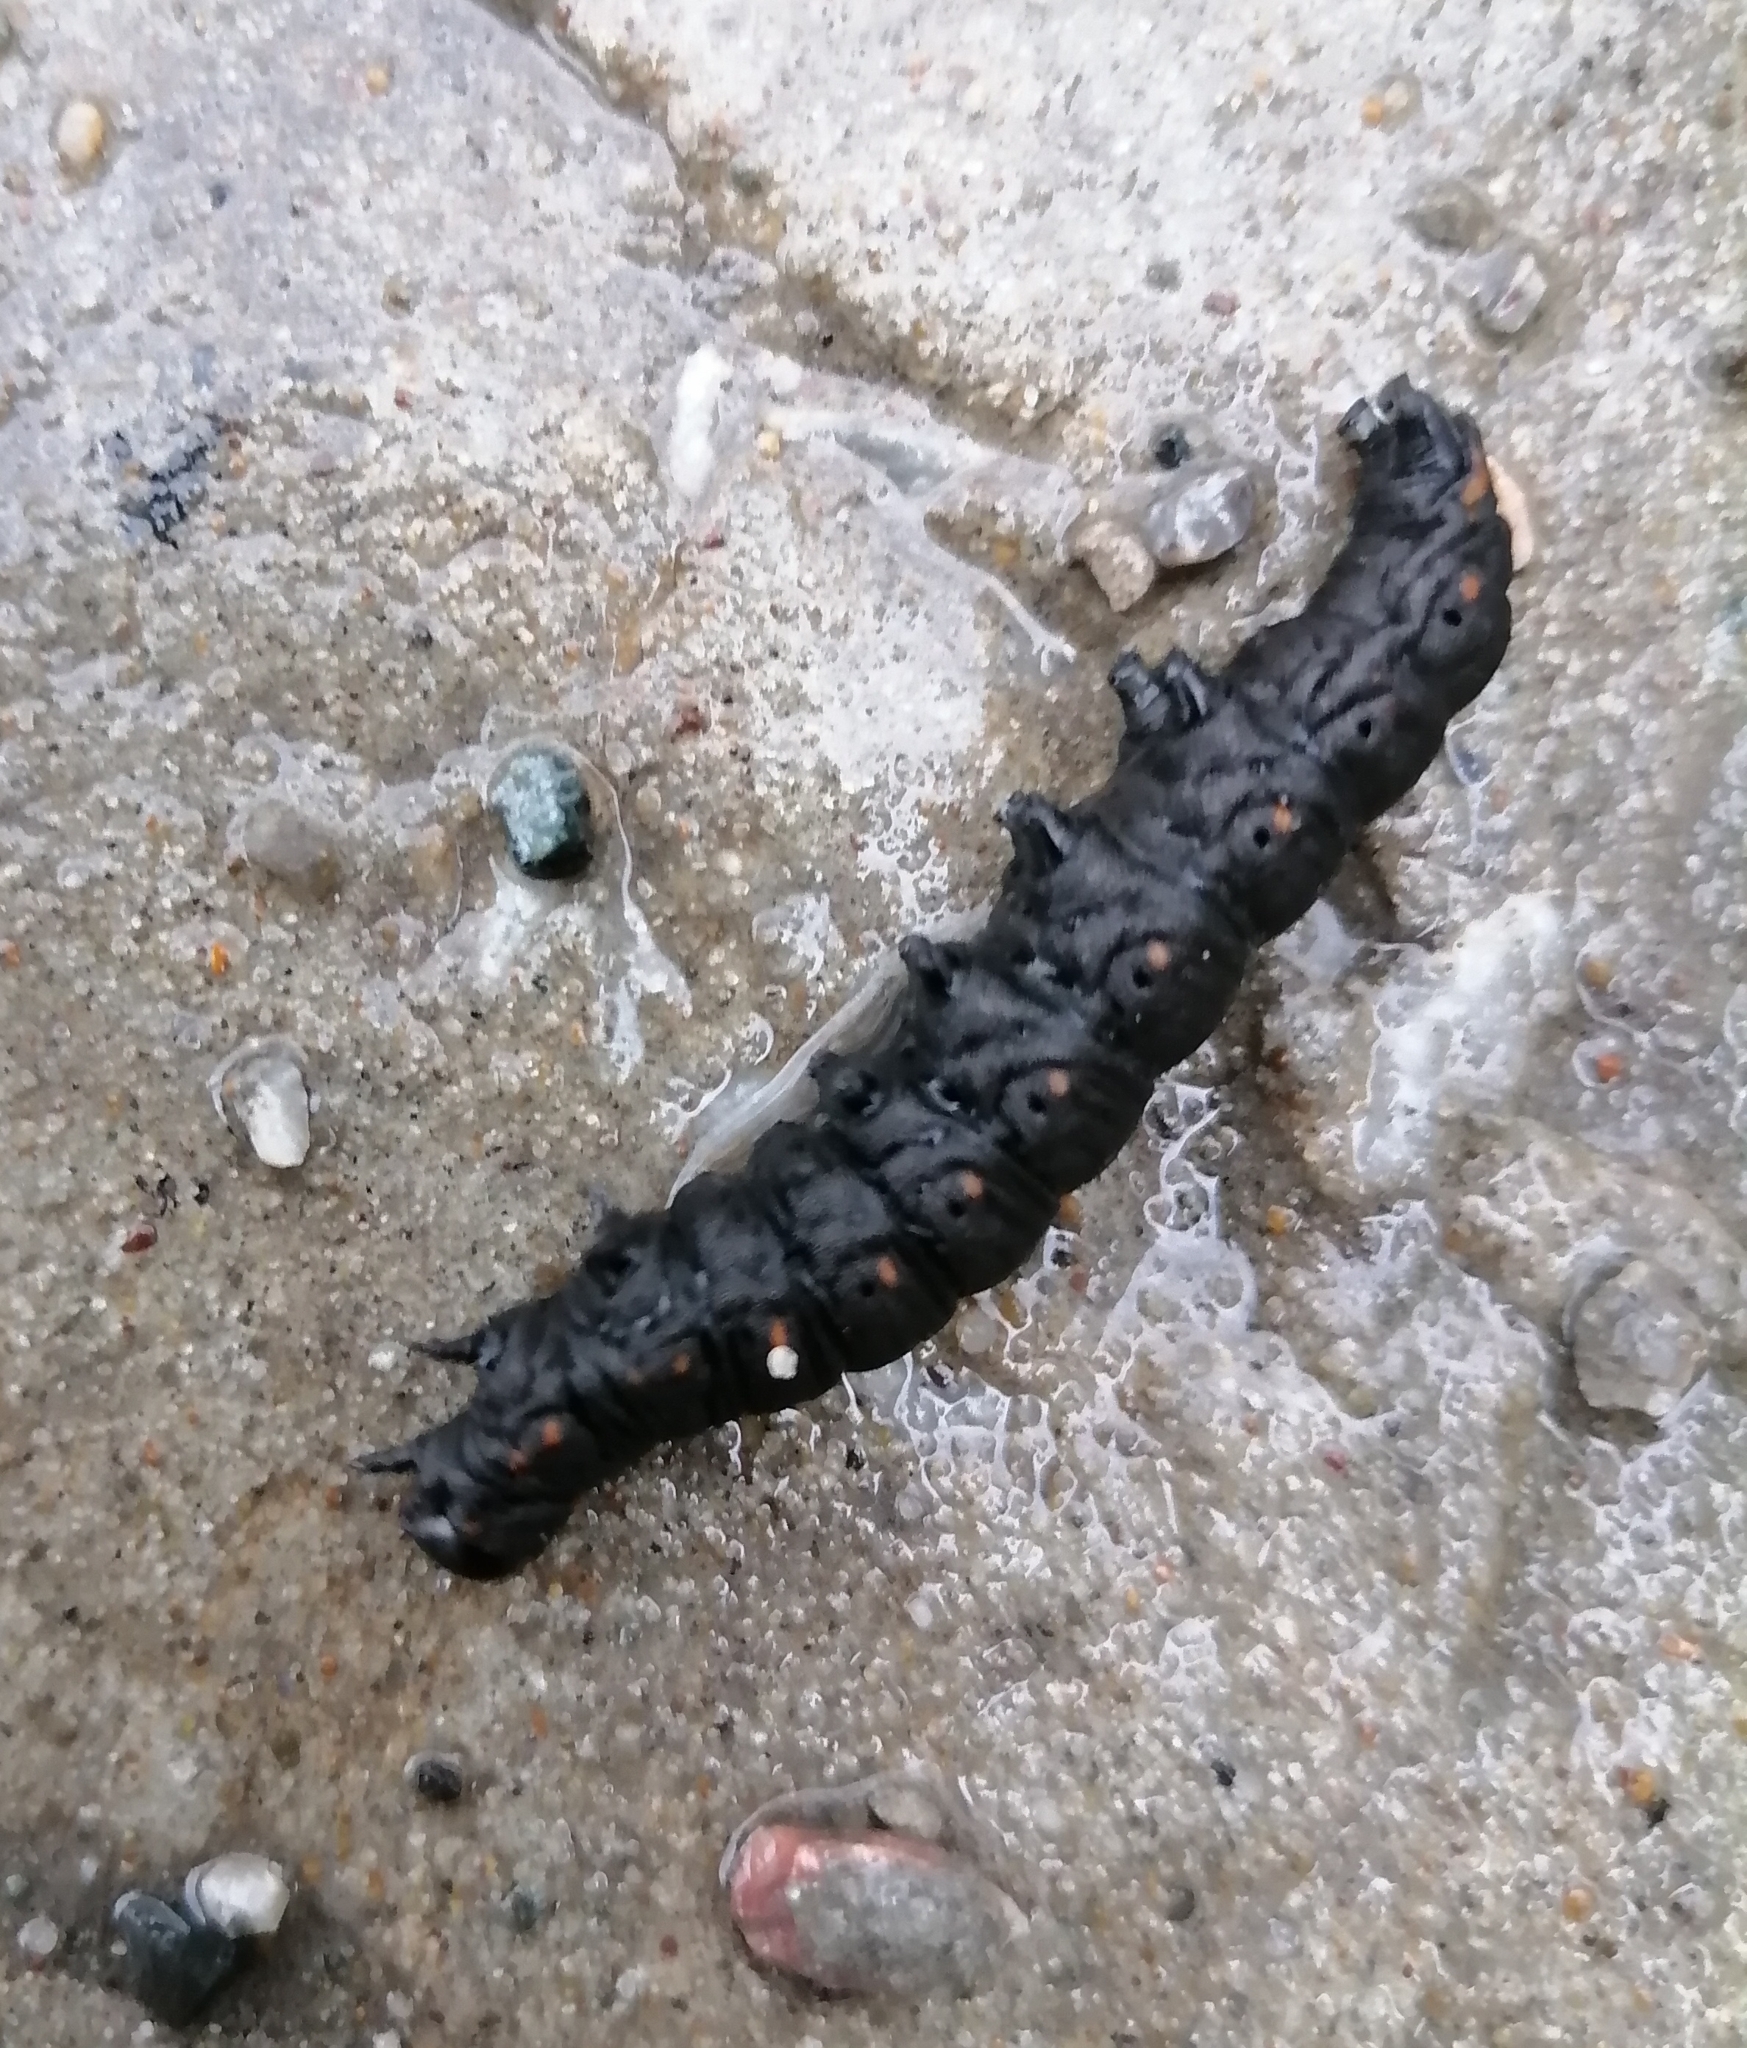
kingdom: Animalia
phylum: Arthropoda
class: Insecta
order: Lepidoptera
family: Noctuidae
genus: Cucullia
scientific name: Cucullia lucifuga
